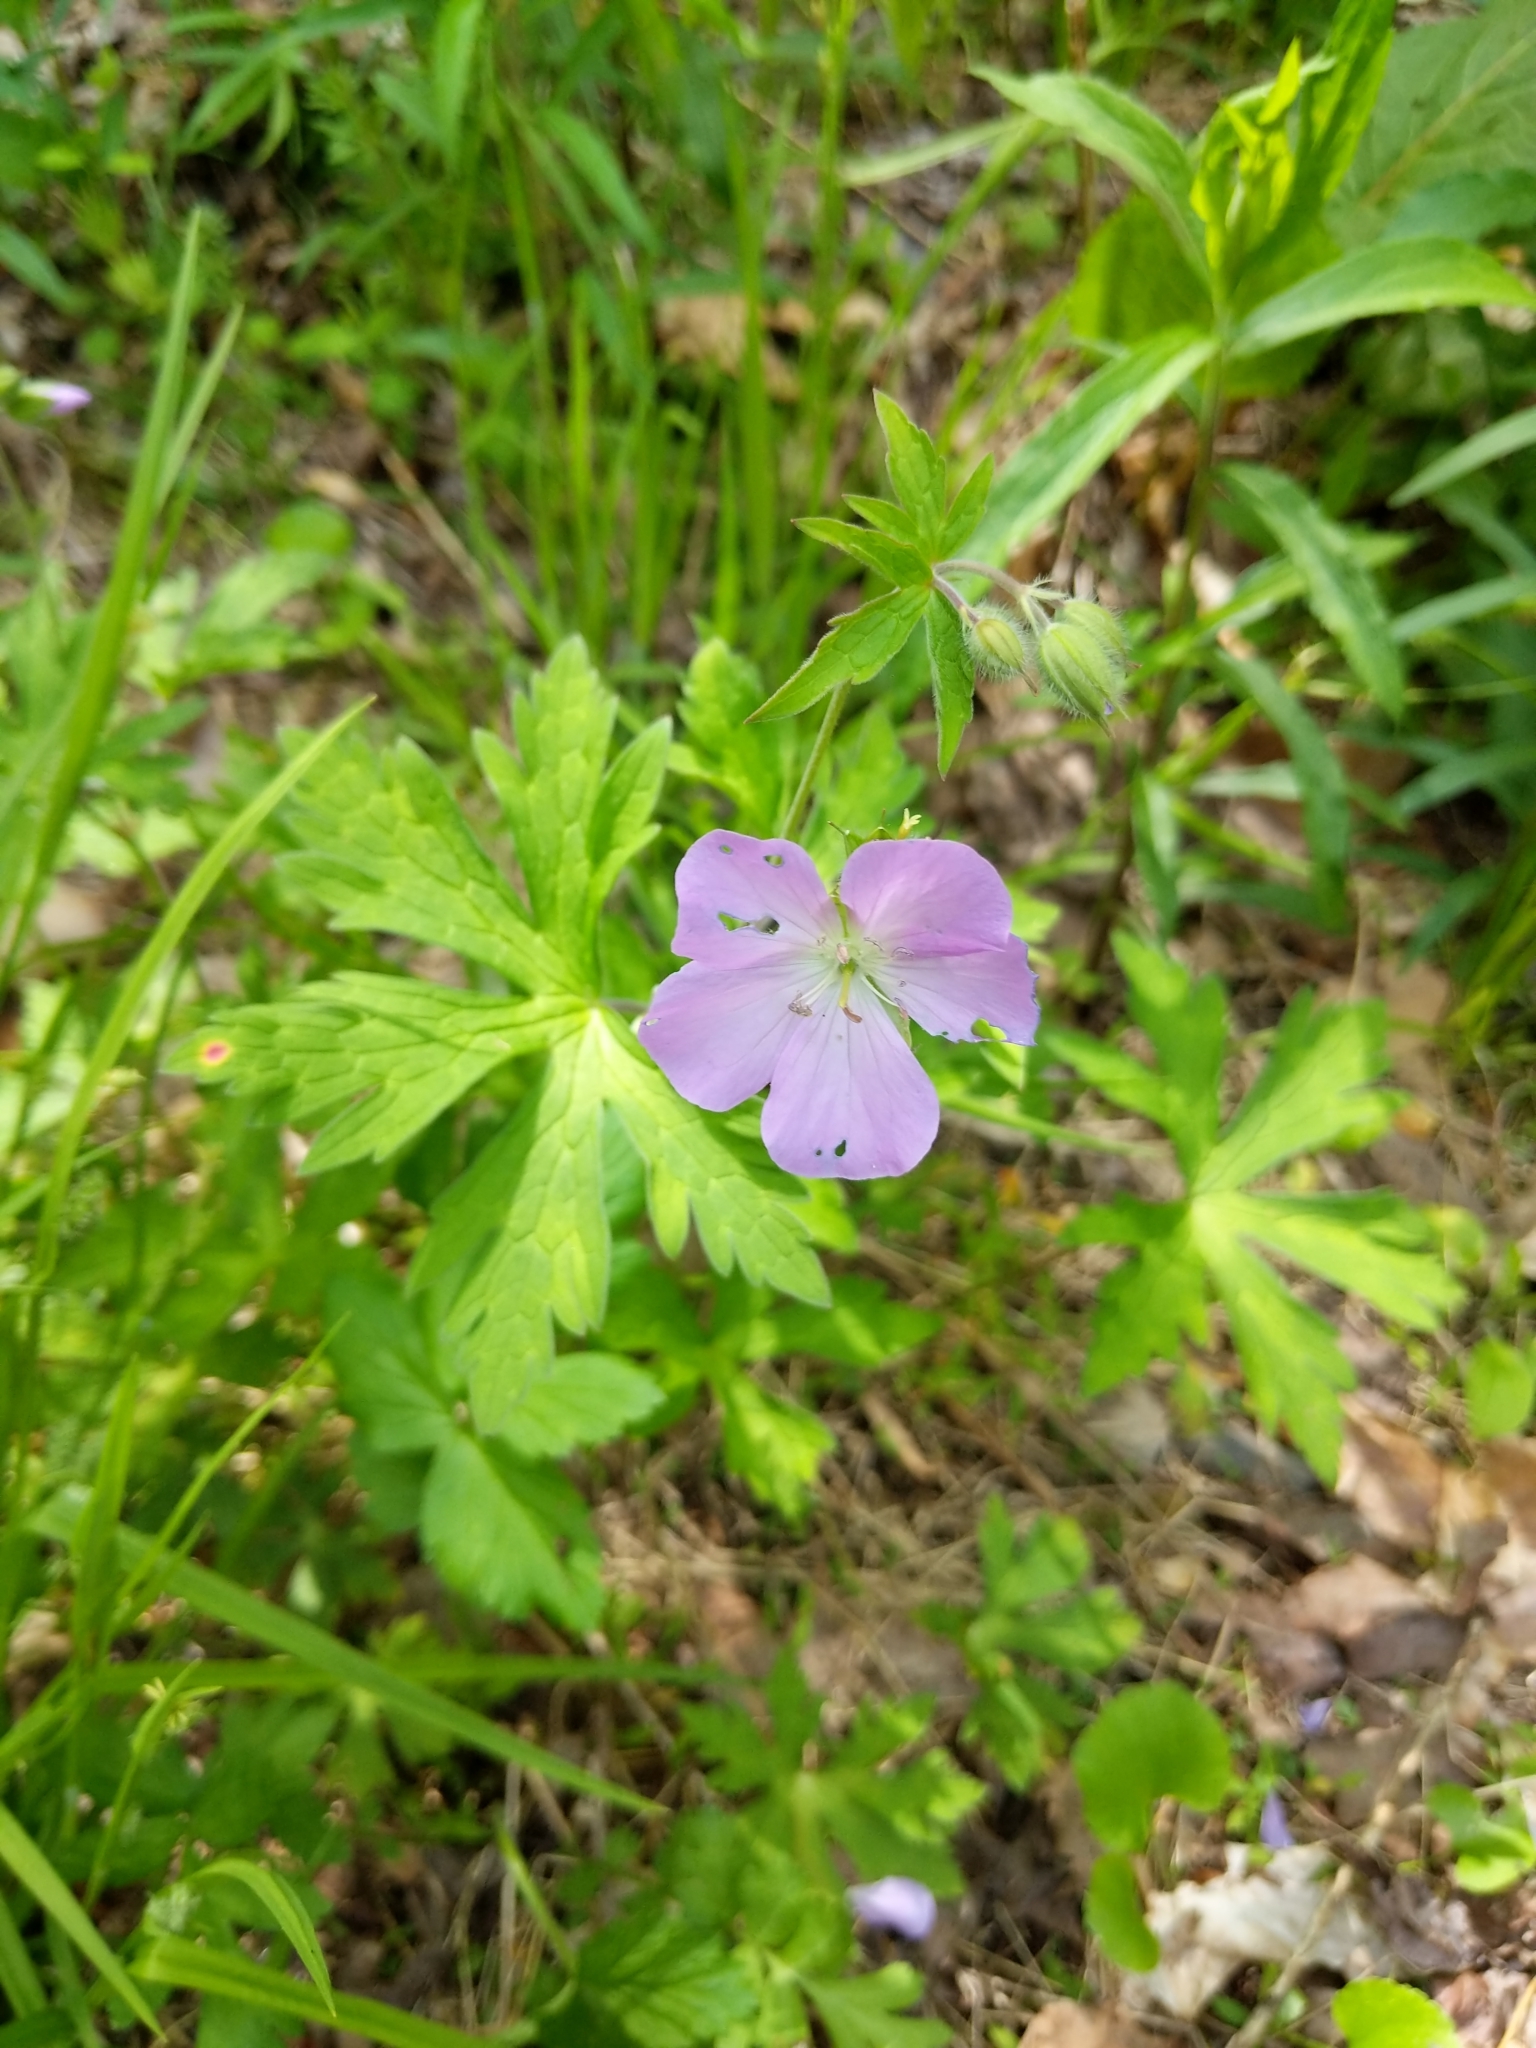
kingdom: Plantae
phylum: Tracheophyta
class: Magnoliopsida
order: Geraniales
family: Geraniaceae
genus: Geranium
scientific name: Geranium maculatum
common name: Spotted geranium
